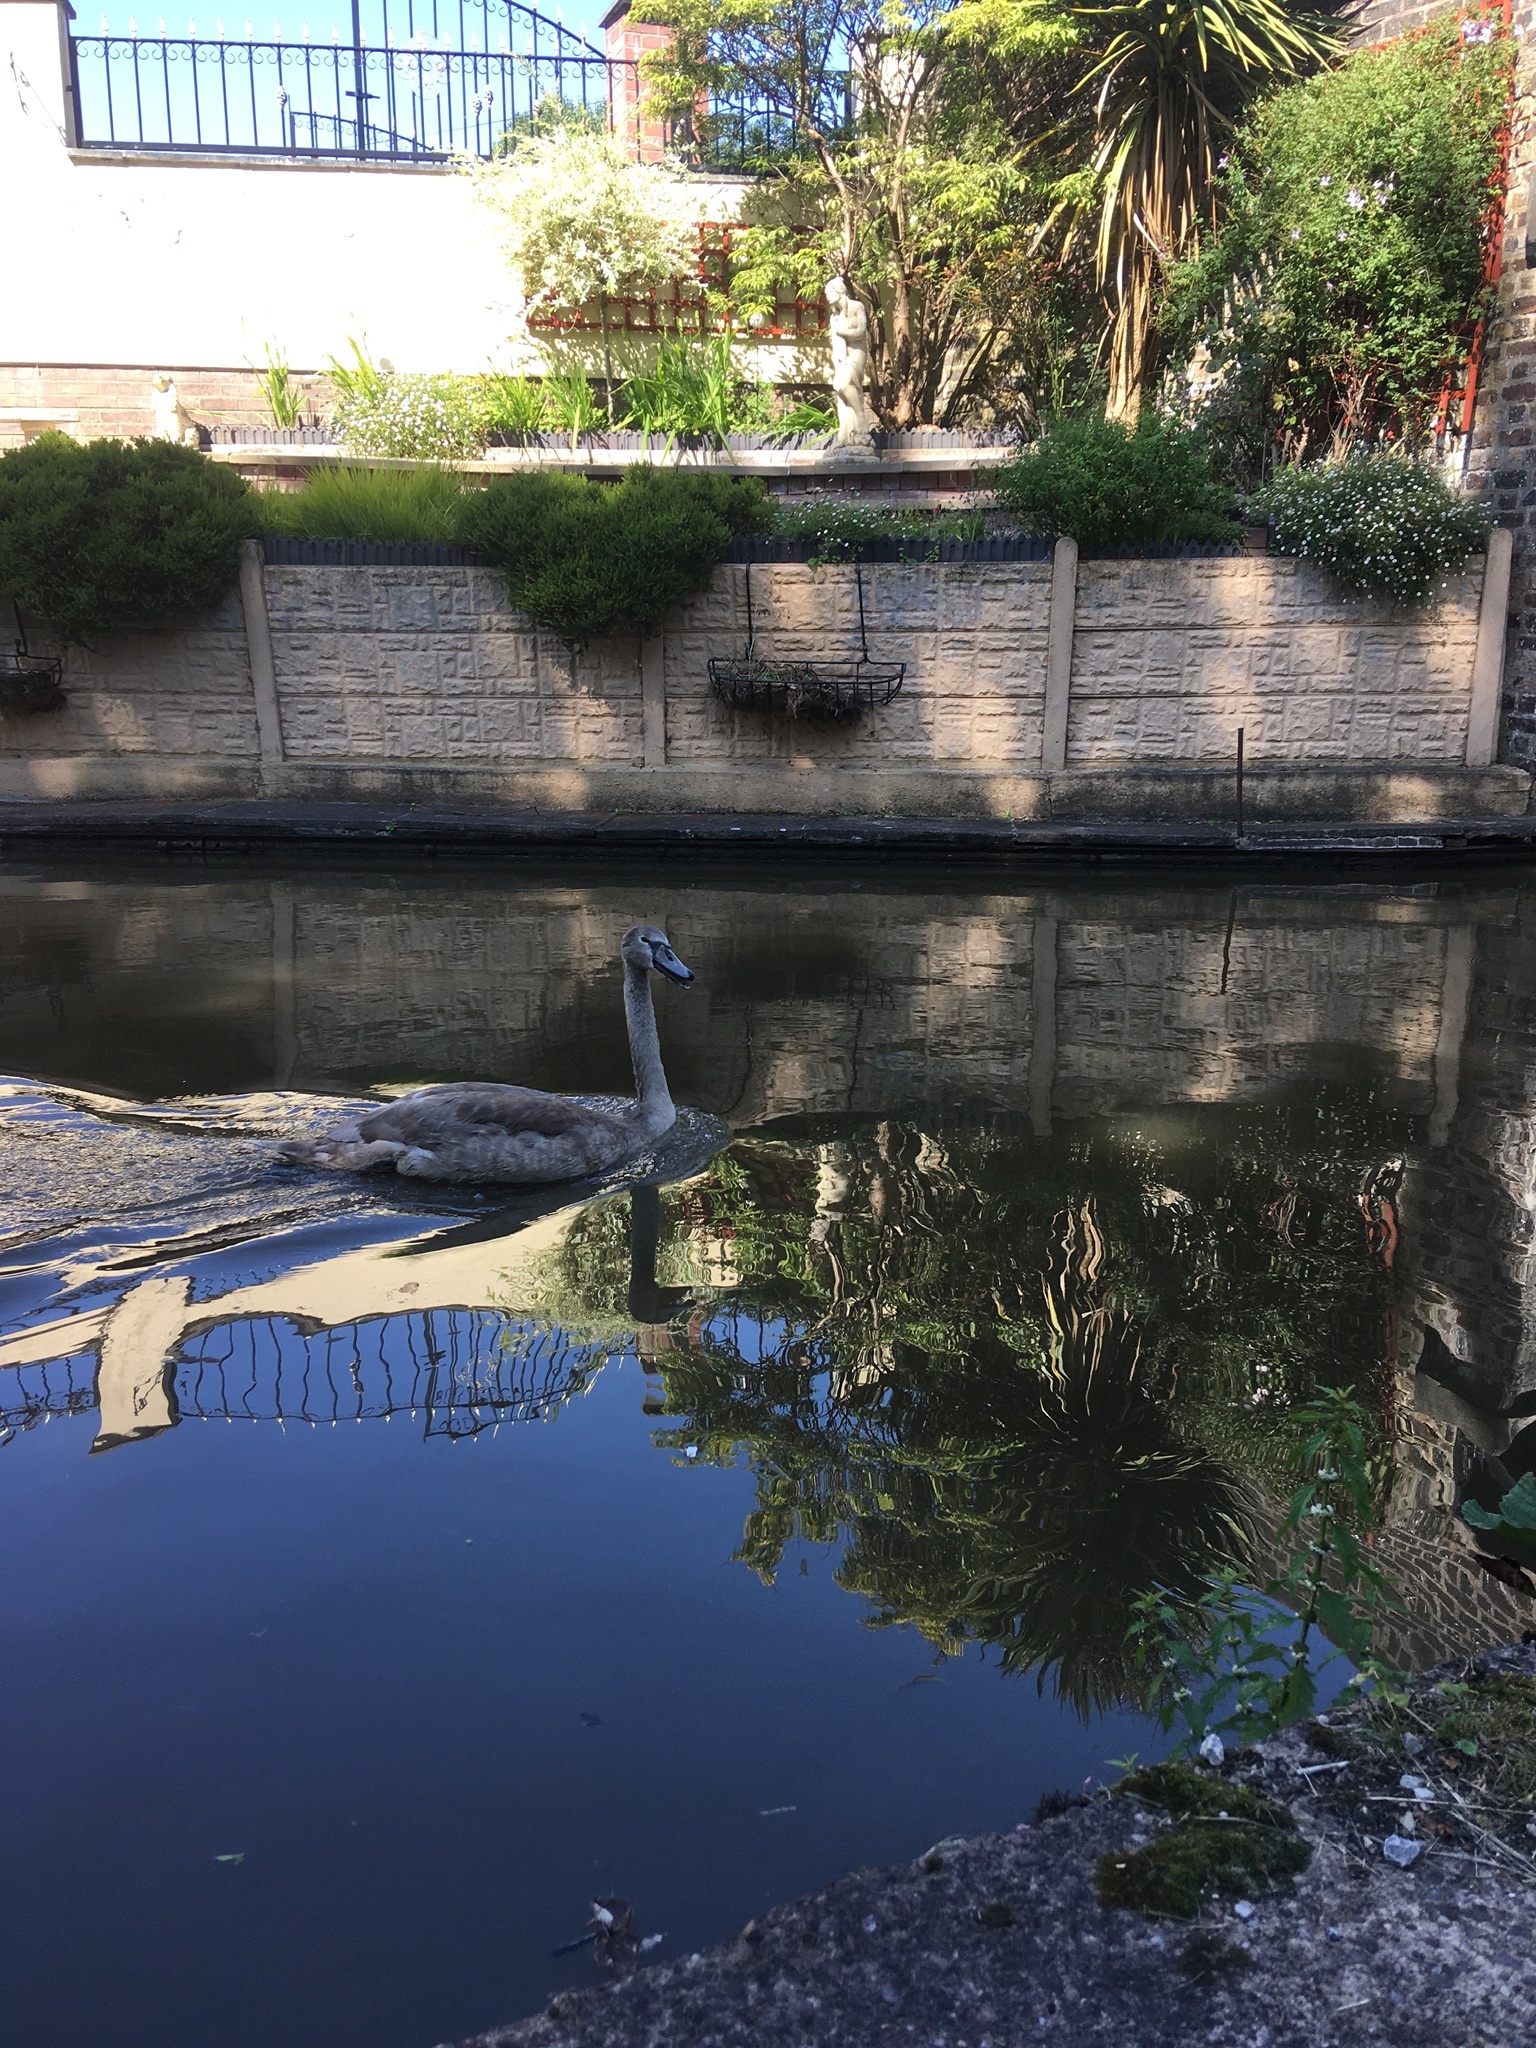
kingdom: Animalia
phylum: Chordata
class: Aves
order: Anseriformes
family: Anatidae
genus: Cygnus
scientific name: Cygnus olor
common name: Mute swan
